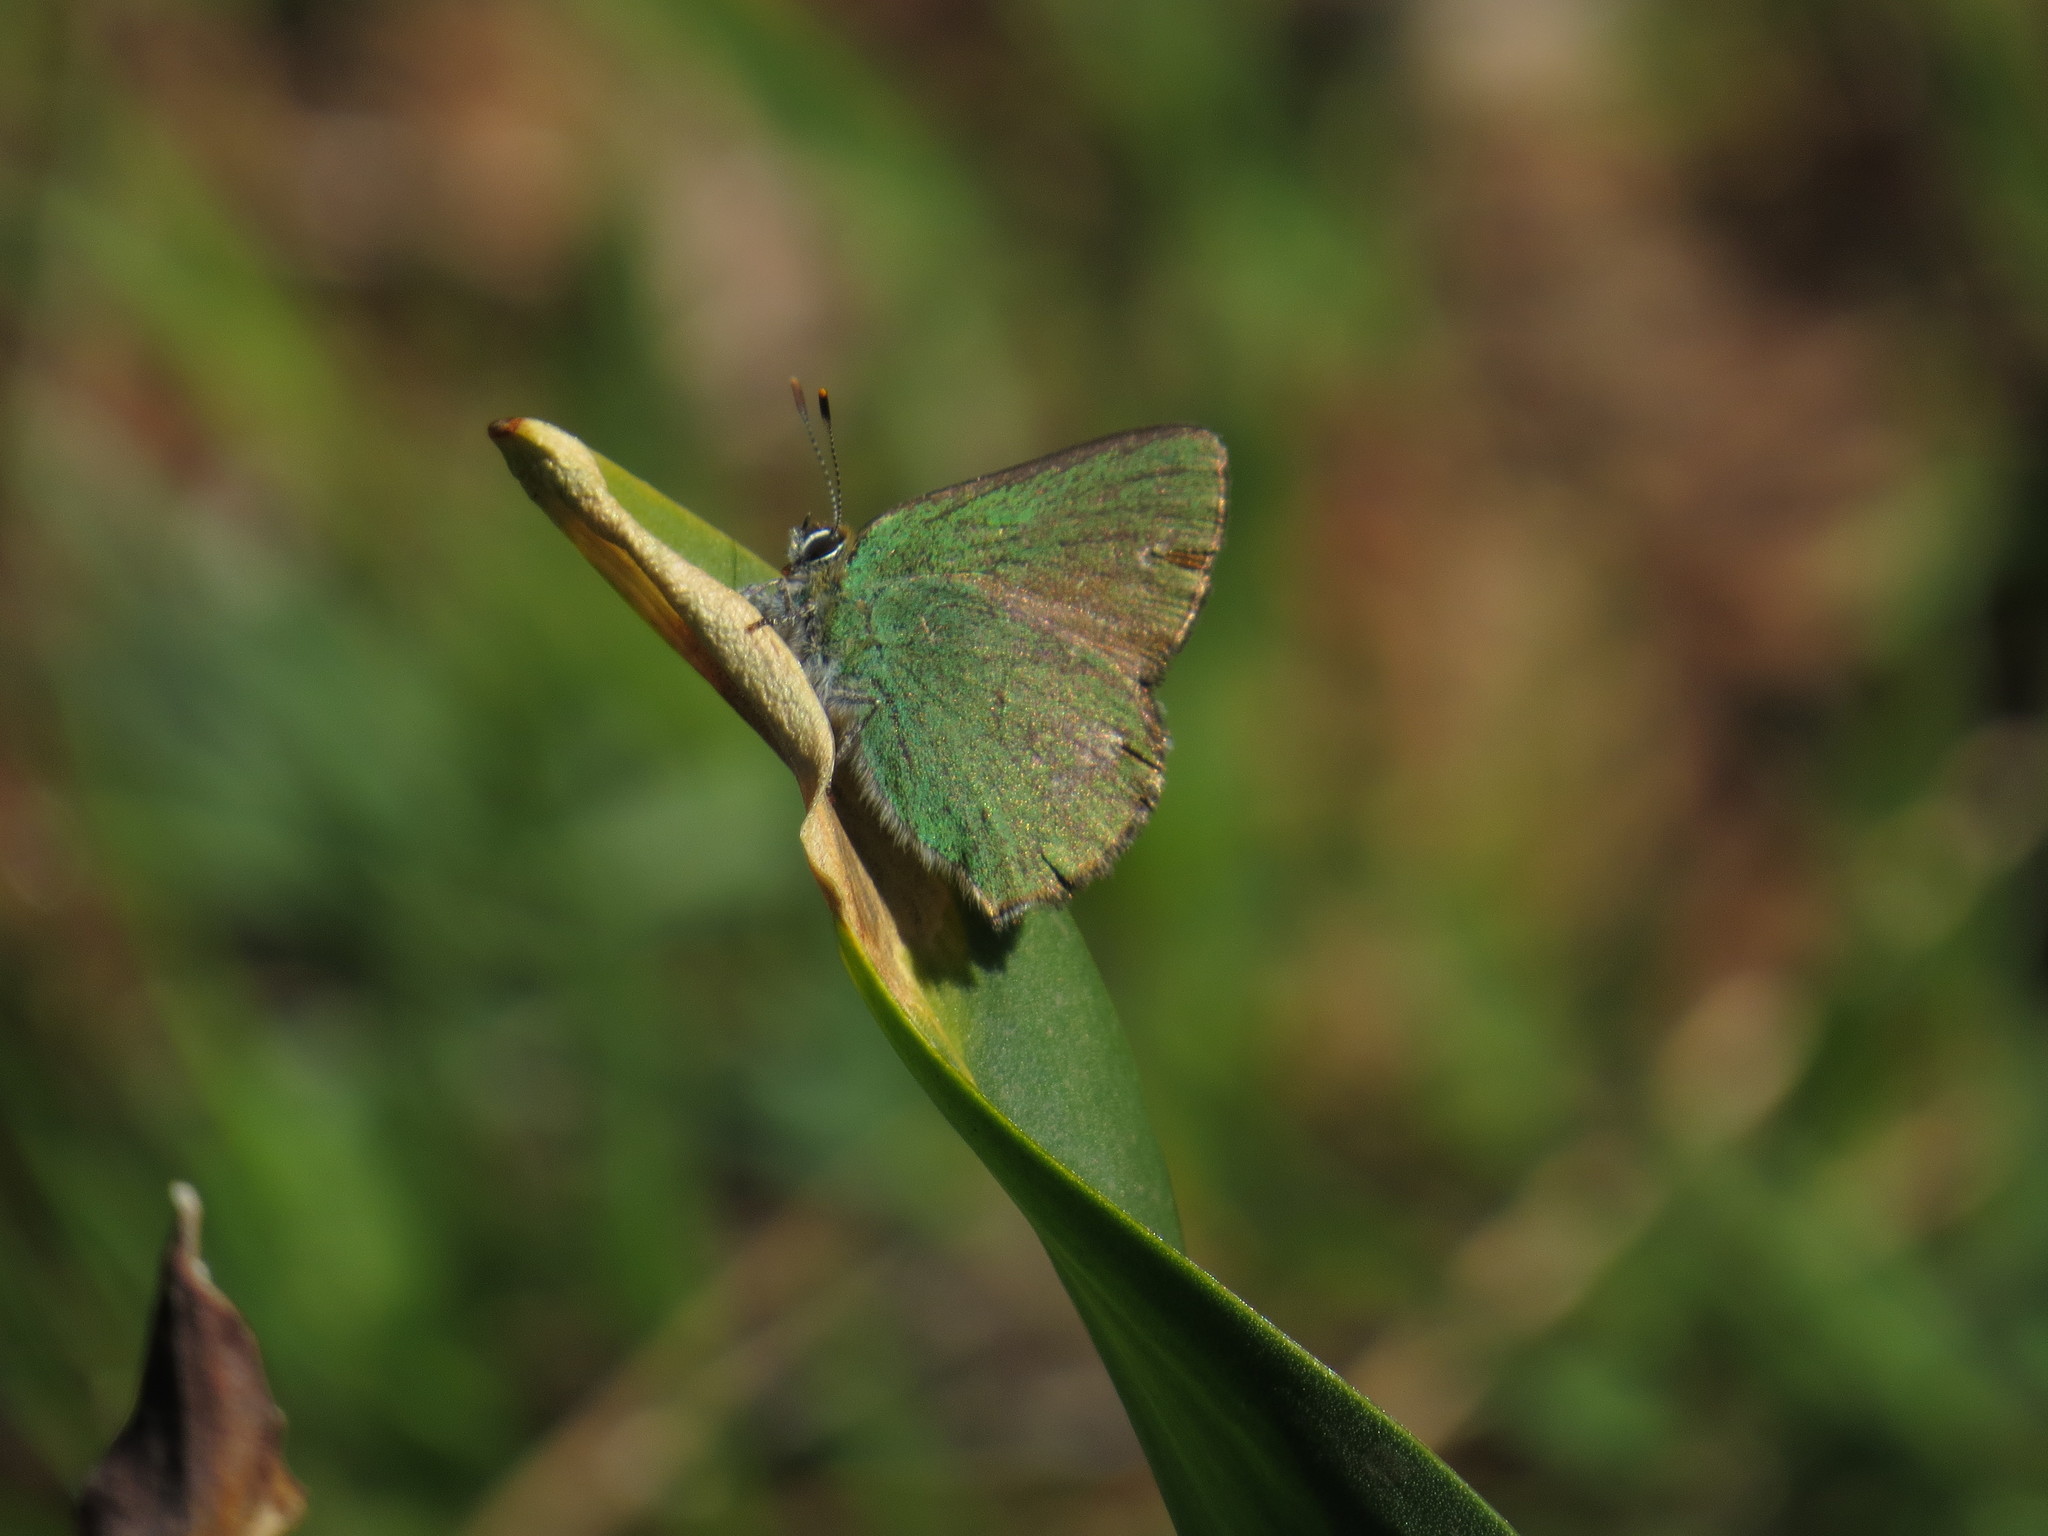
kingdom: Animalia
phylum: Arthropoda
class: Insecta
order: Lepidoptera
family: Lycaenidae
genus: Callophrys
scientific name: Callophrys rubi
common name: Green hairstreak
